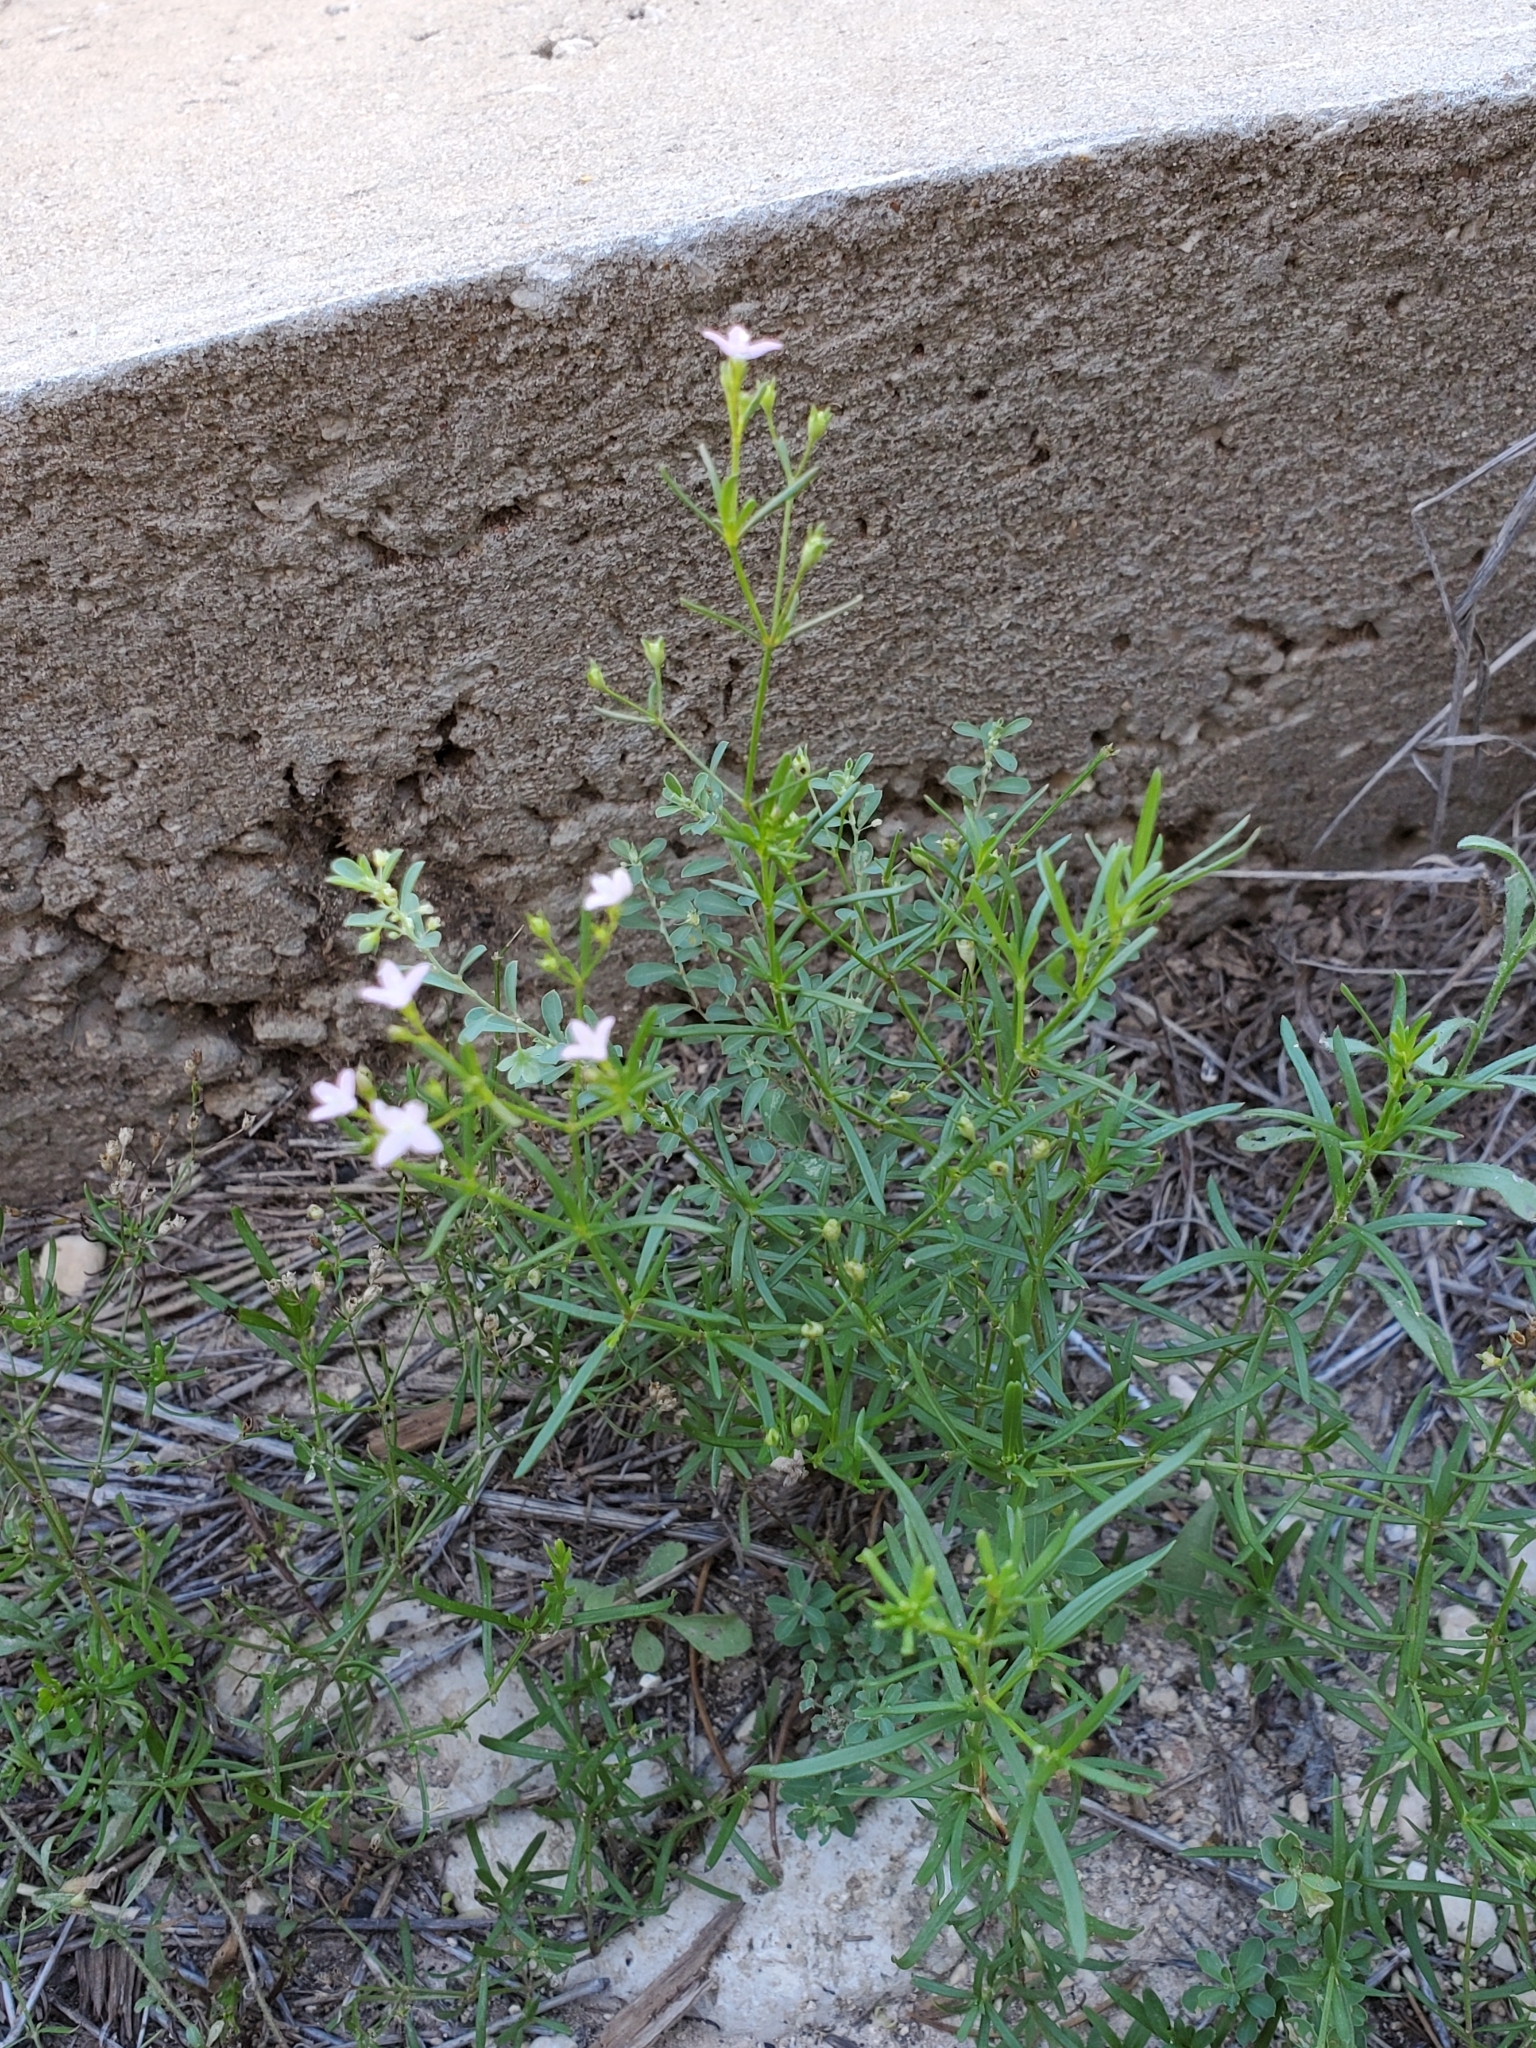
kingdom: Plantae
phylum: Tracheophyta
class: Magnoliopsida
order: Gentianales
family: Rubiaceae
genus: Stenaria
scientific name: Stenaria nigricans
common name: Diamondflowers
